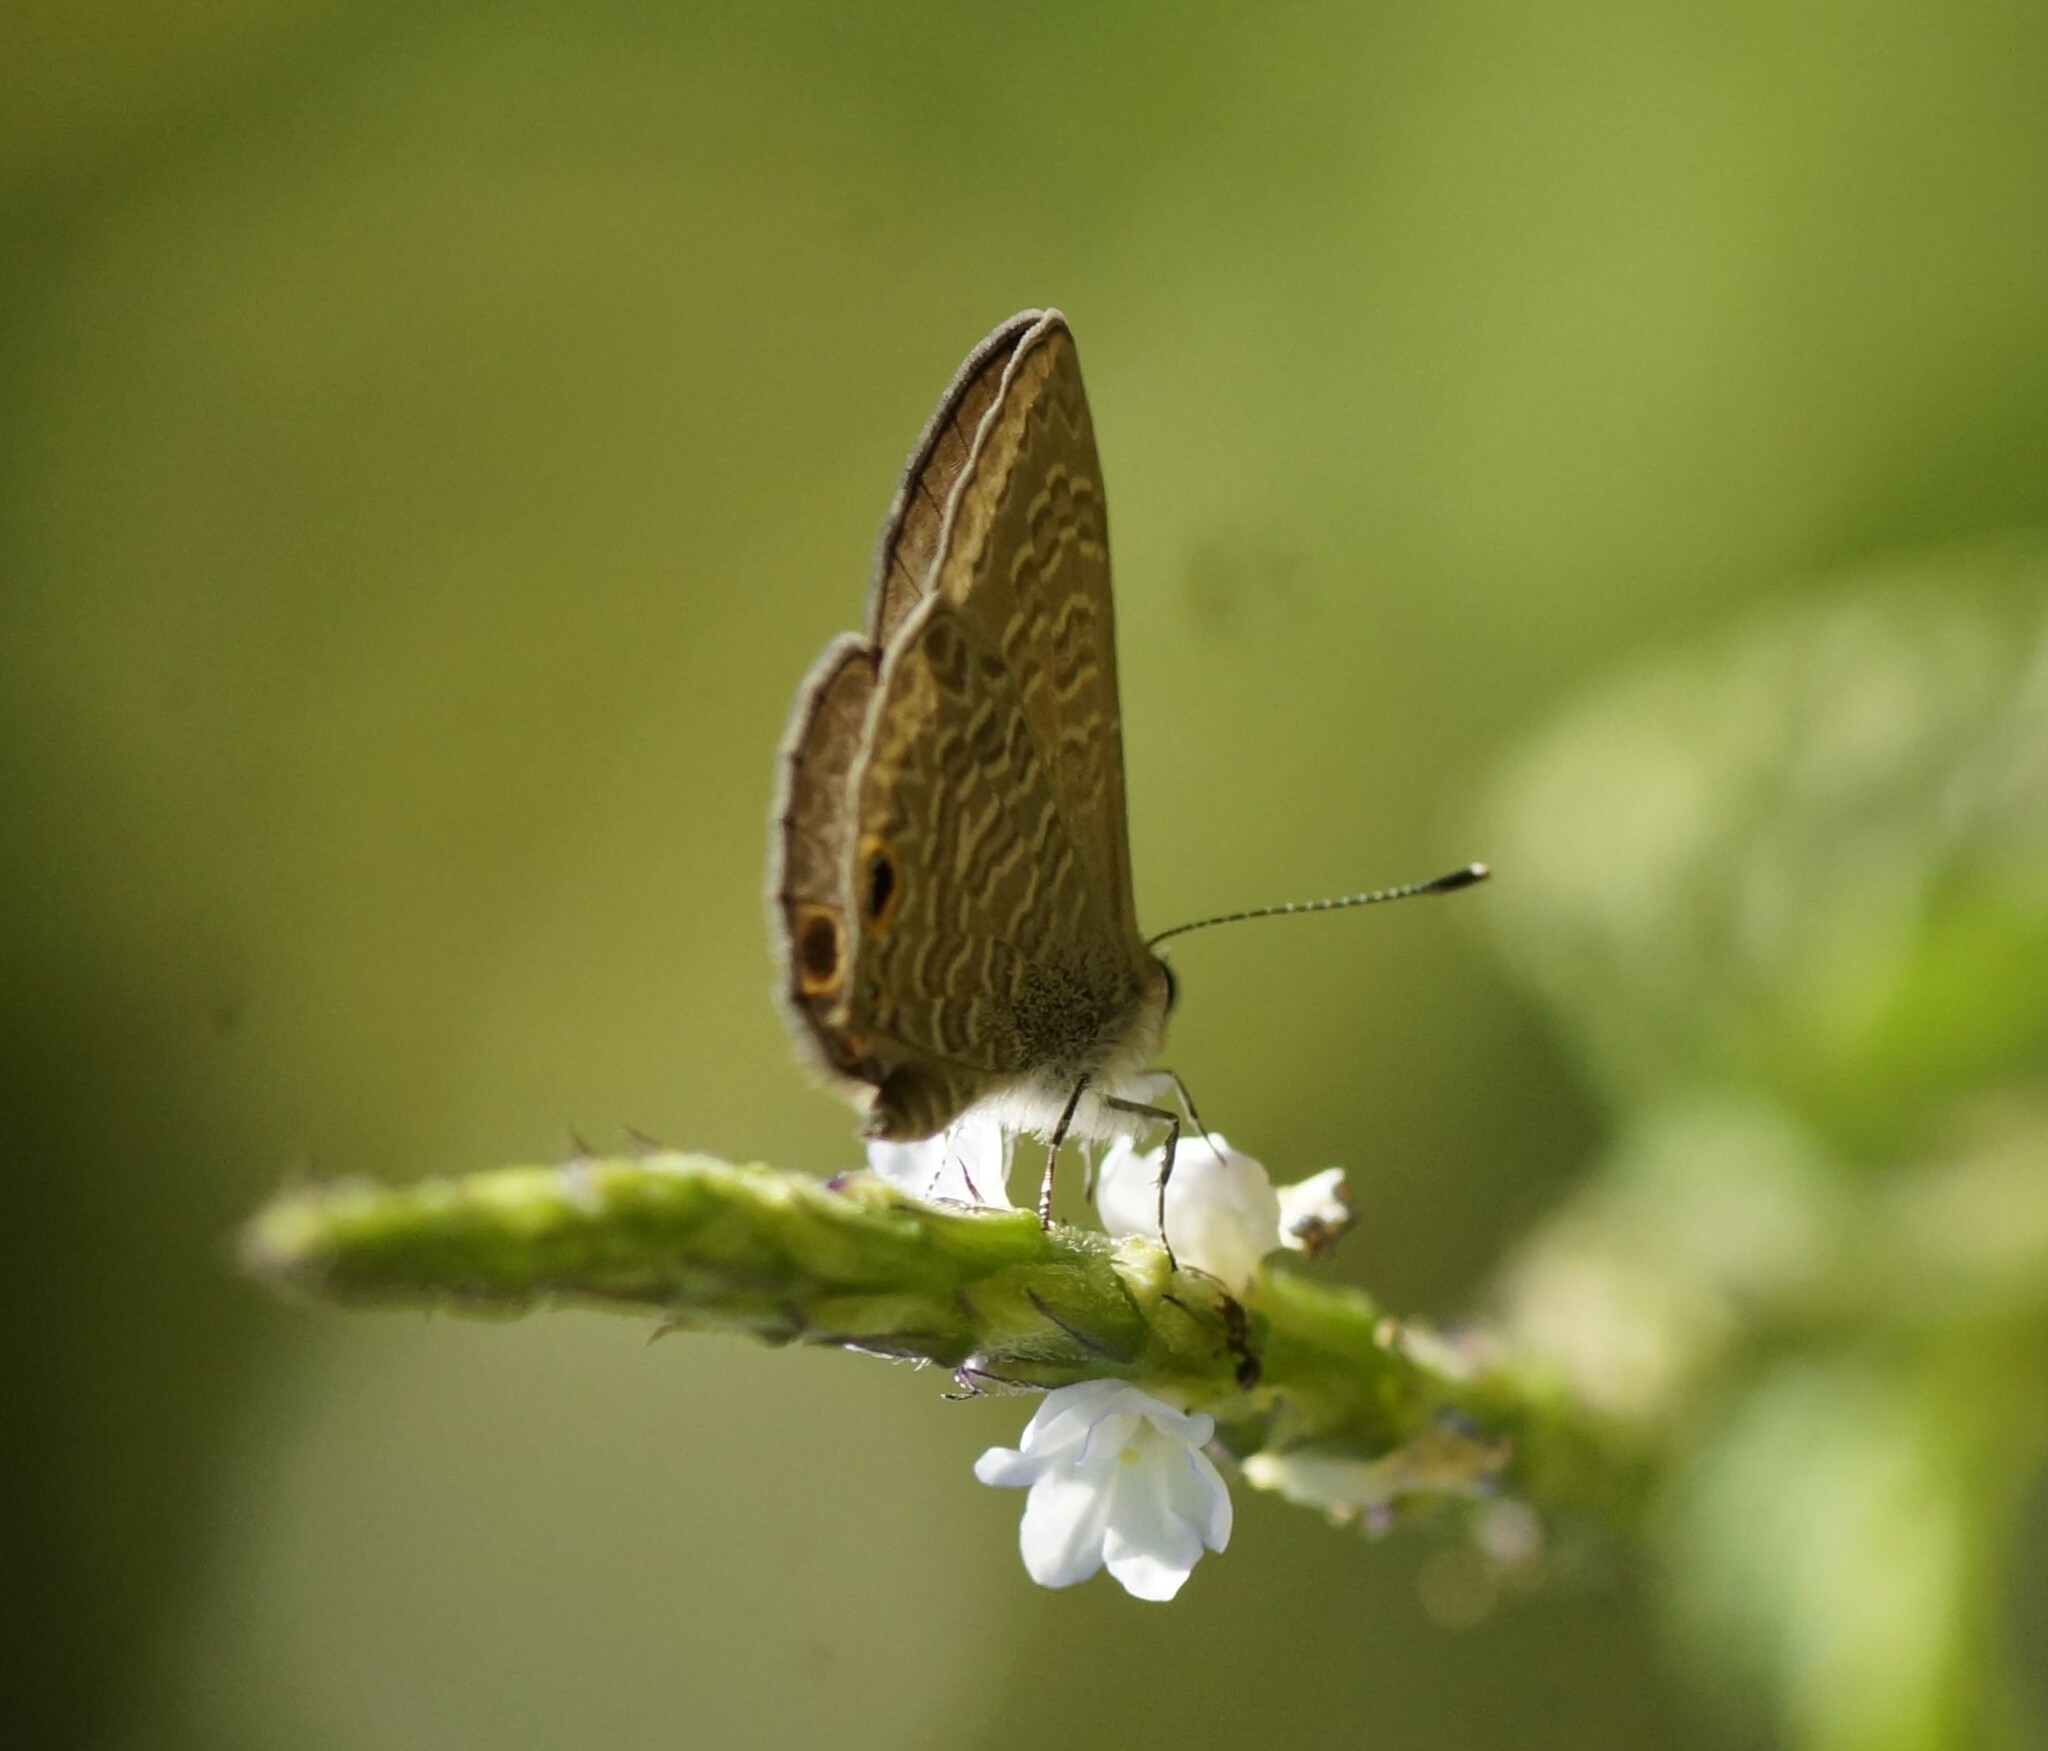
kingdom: Animalia
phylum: Arthropoda
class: Insecta
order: Lepidoptera
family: Lycaenidae
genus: Prosotas
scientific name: Prosotas dubiosa
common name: Tailless lineblue
